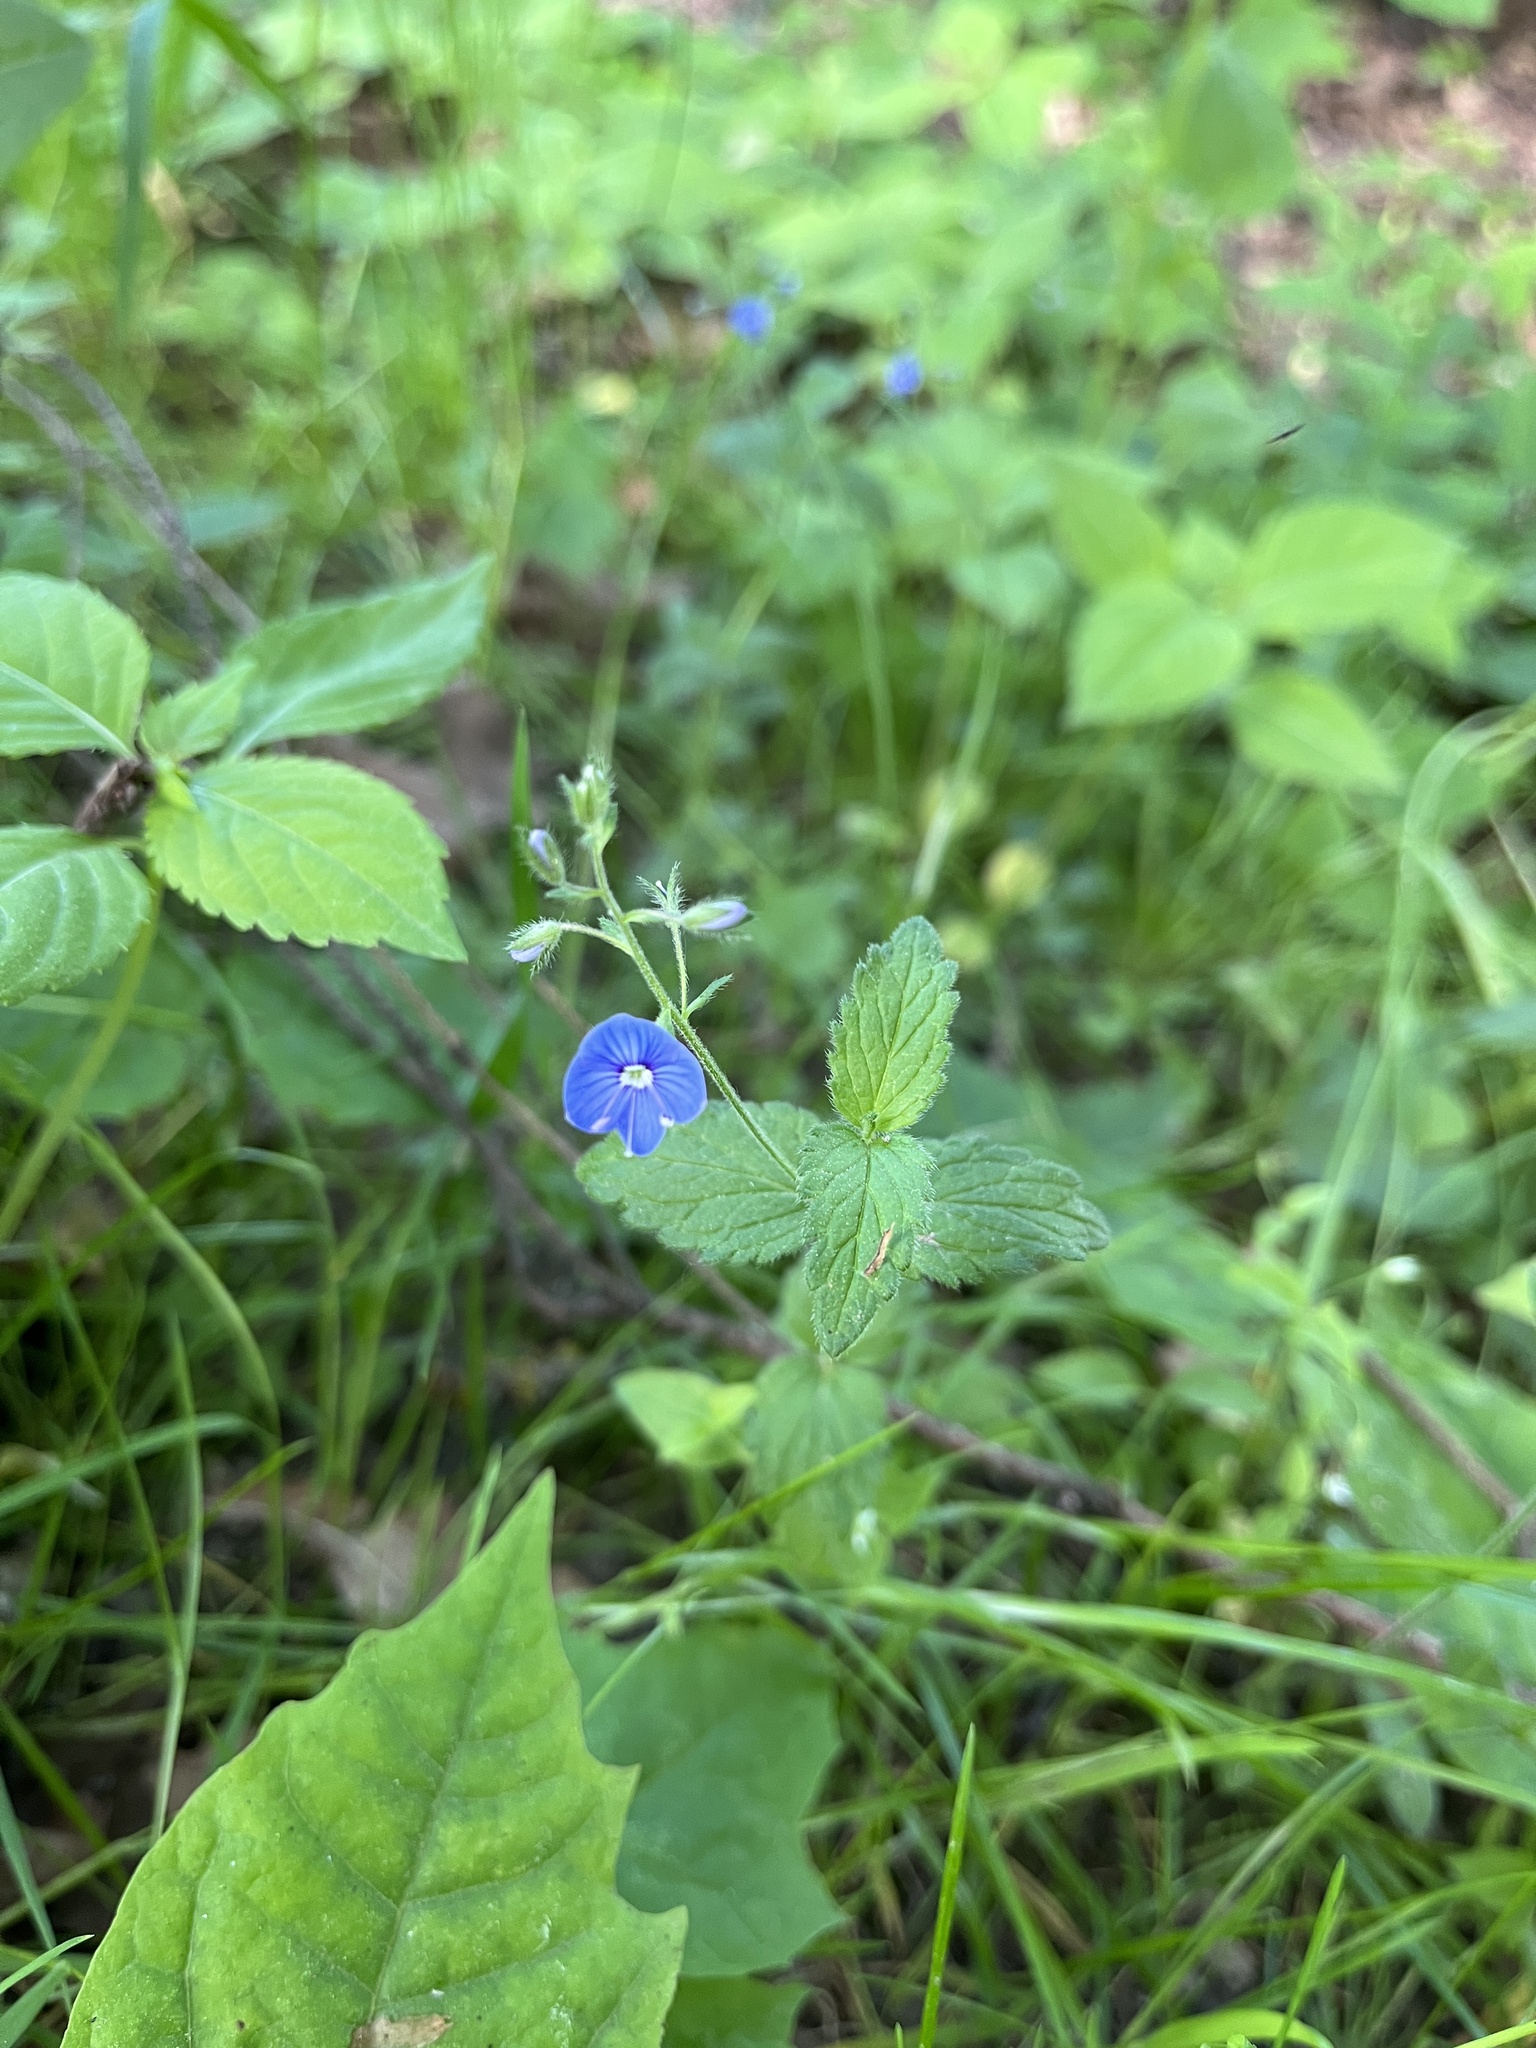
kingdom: Plantae
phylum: Tracheophyta
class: Magnoliopsida
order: Lamiales
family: Plantaginaceae
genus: Veronica
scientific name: Veronica chamaedrys
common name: Germander speedwell
